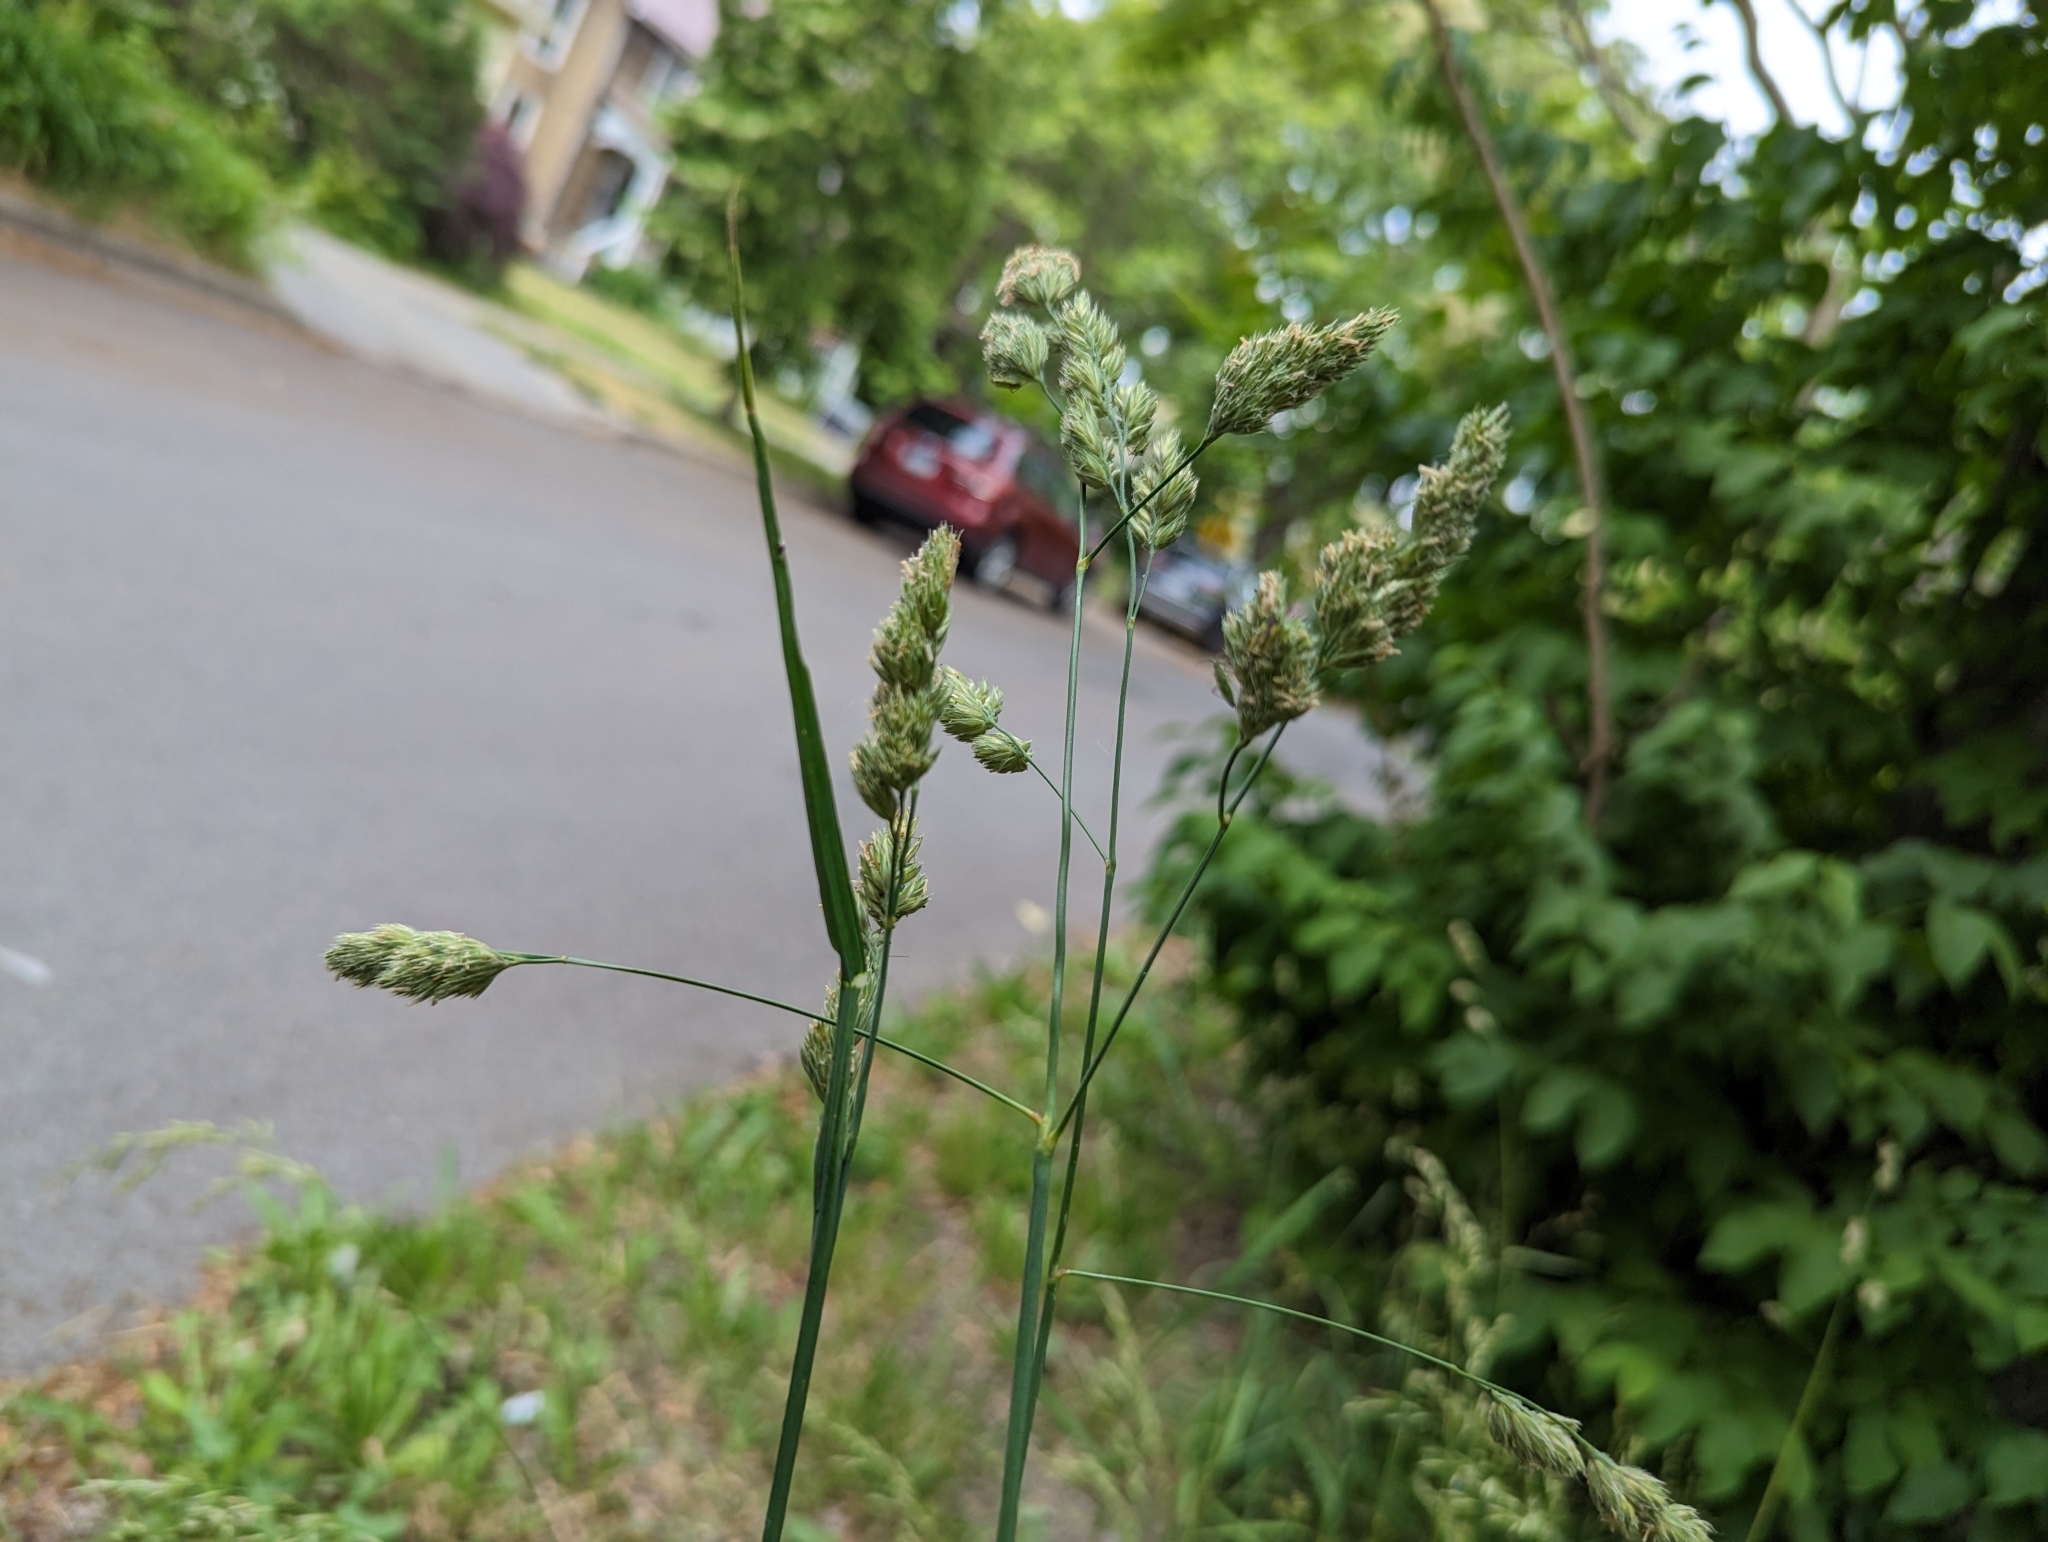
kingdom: Animalia
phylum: Arthropoda
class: Insecta
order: Hemiptera
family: Miridae
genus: Stenotus
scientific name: Stenotus binotatus
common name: Plant bug
